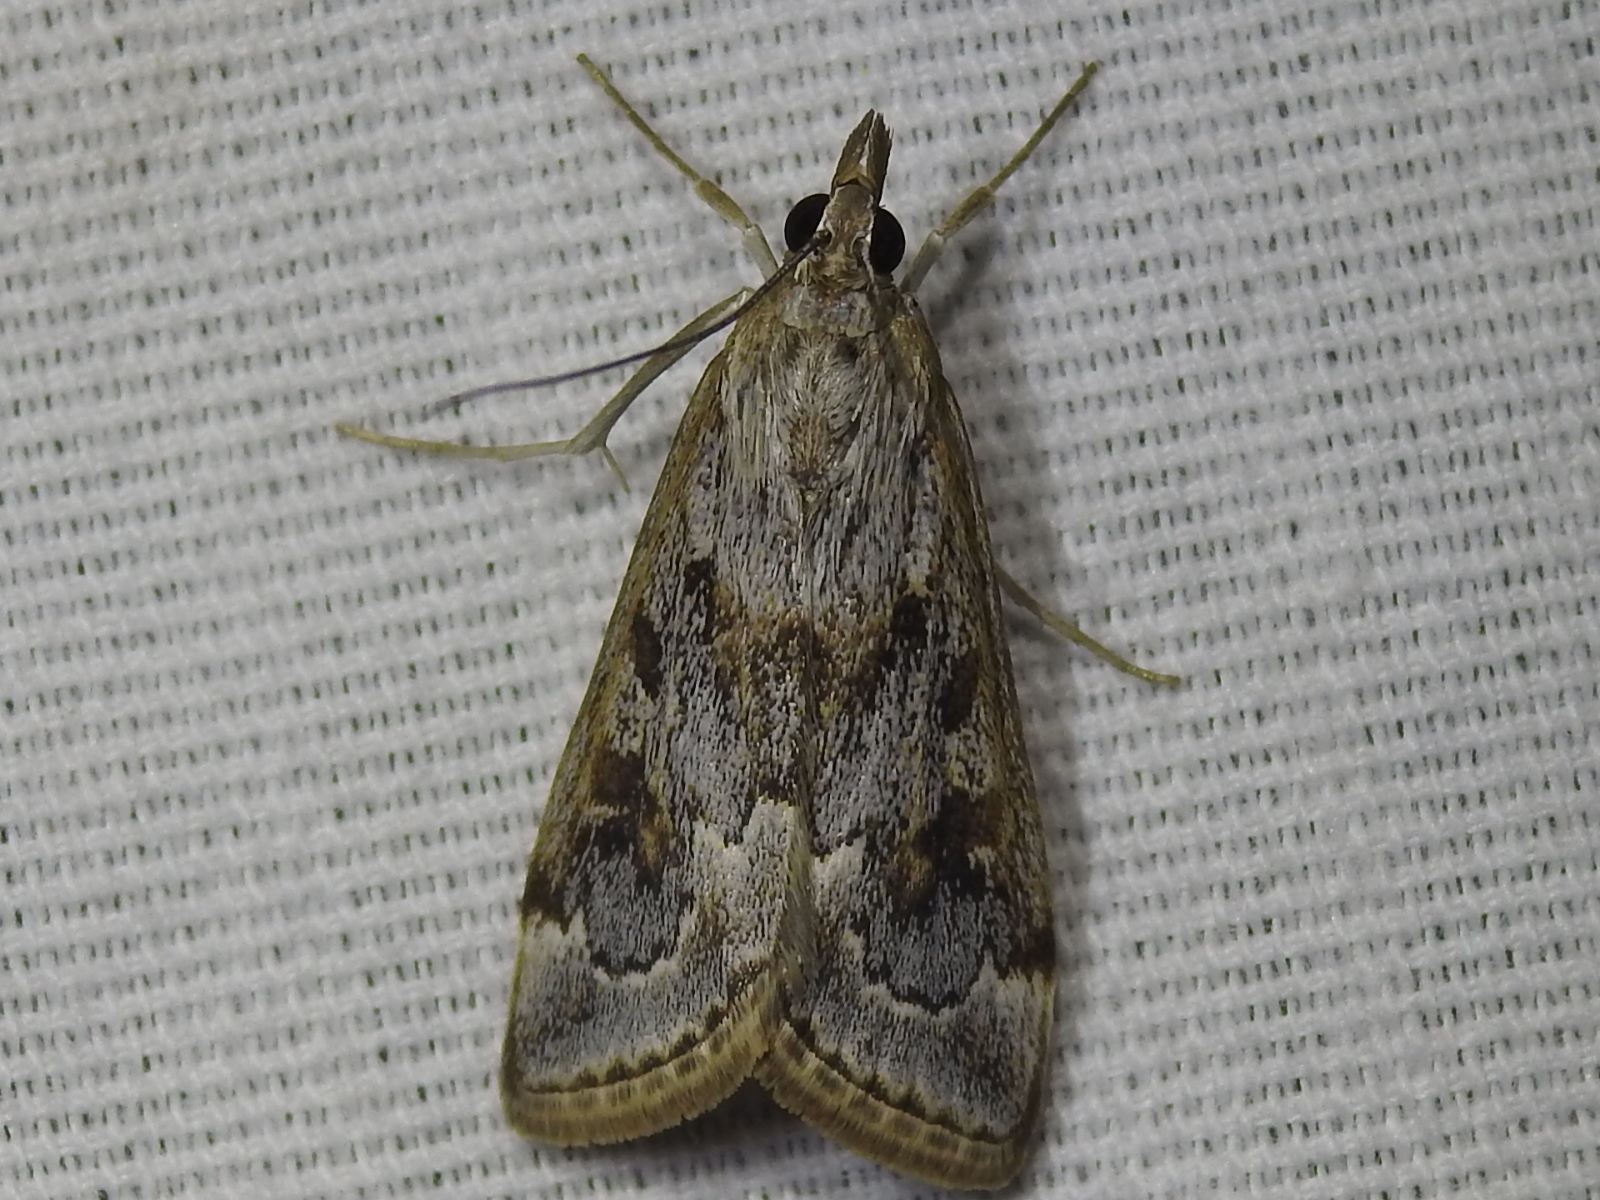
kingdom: Animalia
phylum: Arthropoda
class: Insecta
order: Lepidoptera
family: Crambidae
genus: Loxostege
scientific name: Loxostege allectalis
